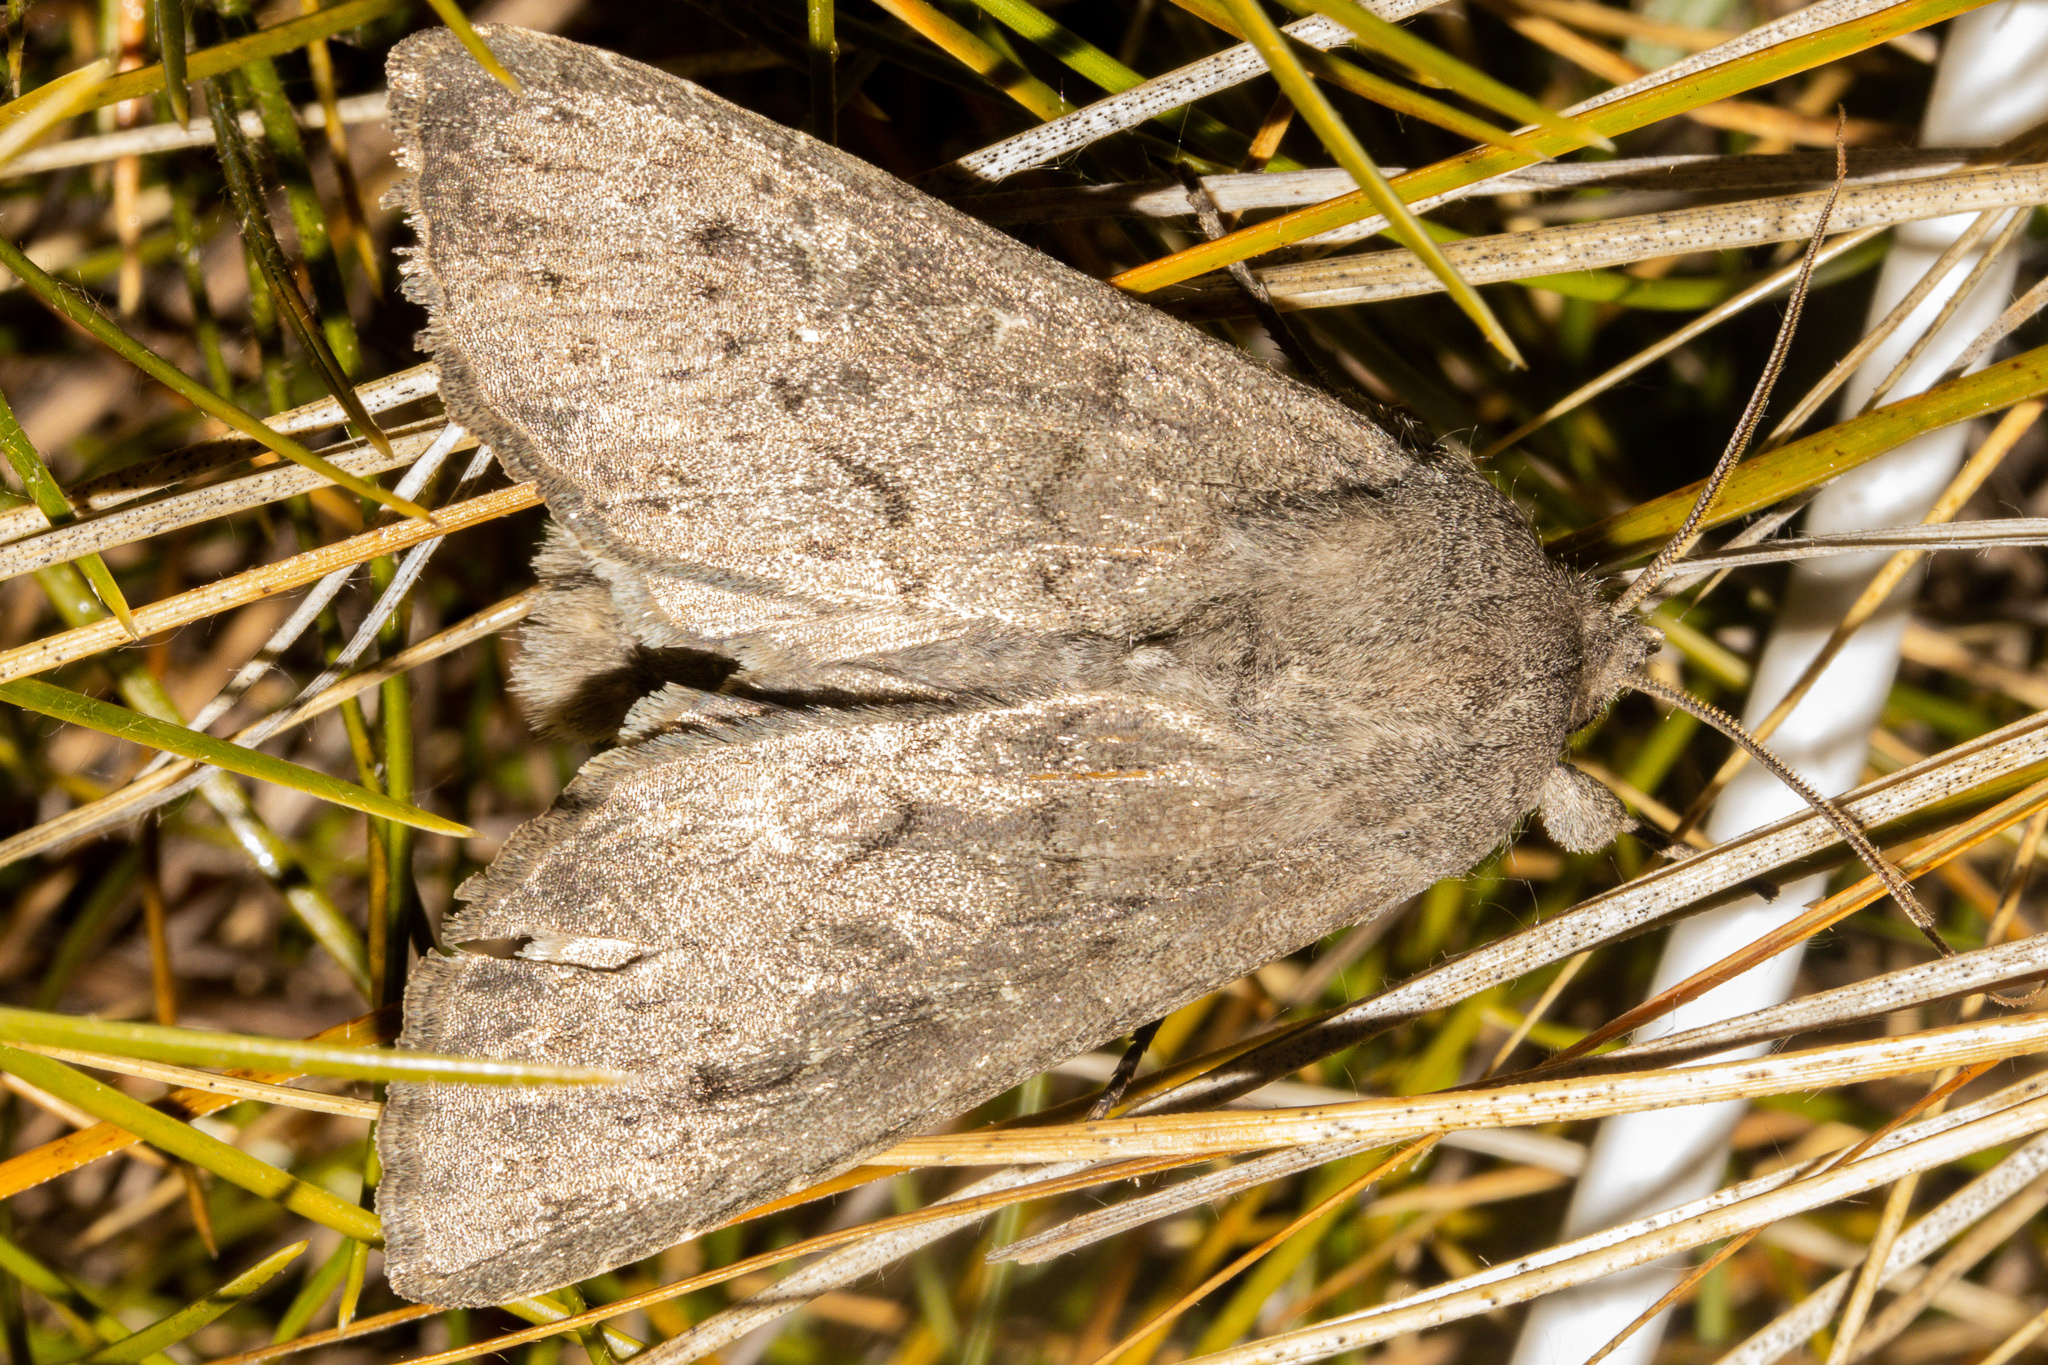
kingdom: Animalia
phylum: Arthropoda
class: Insecta
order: Lepidoptera
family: Noctuidae
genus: Ichneutica
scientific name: Ichneutica nullifera
